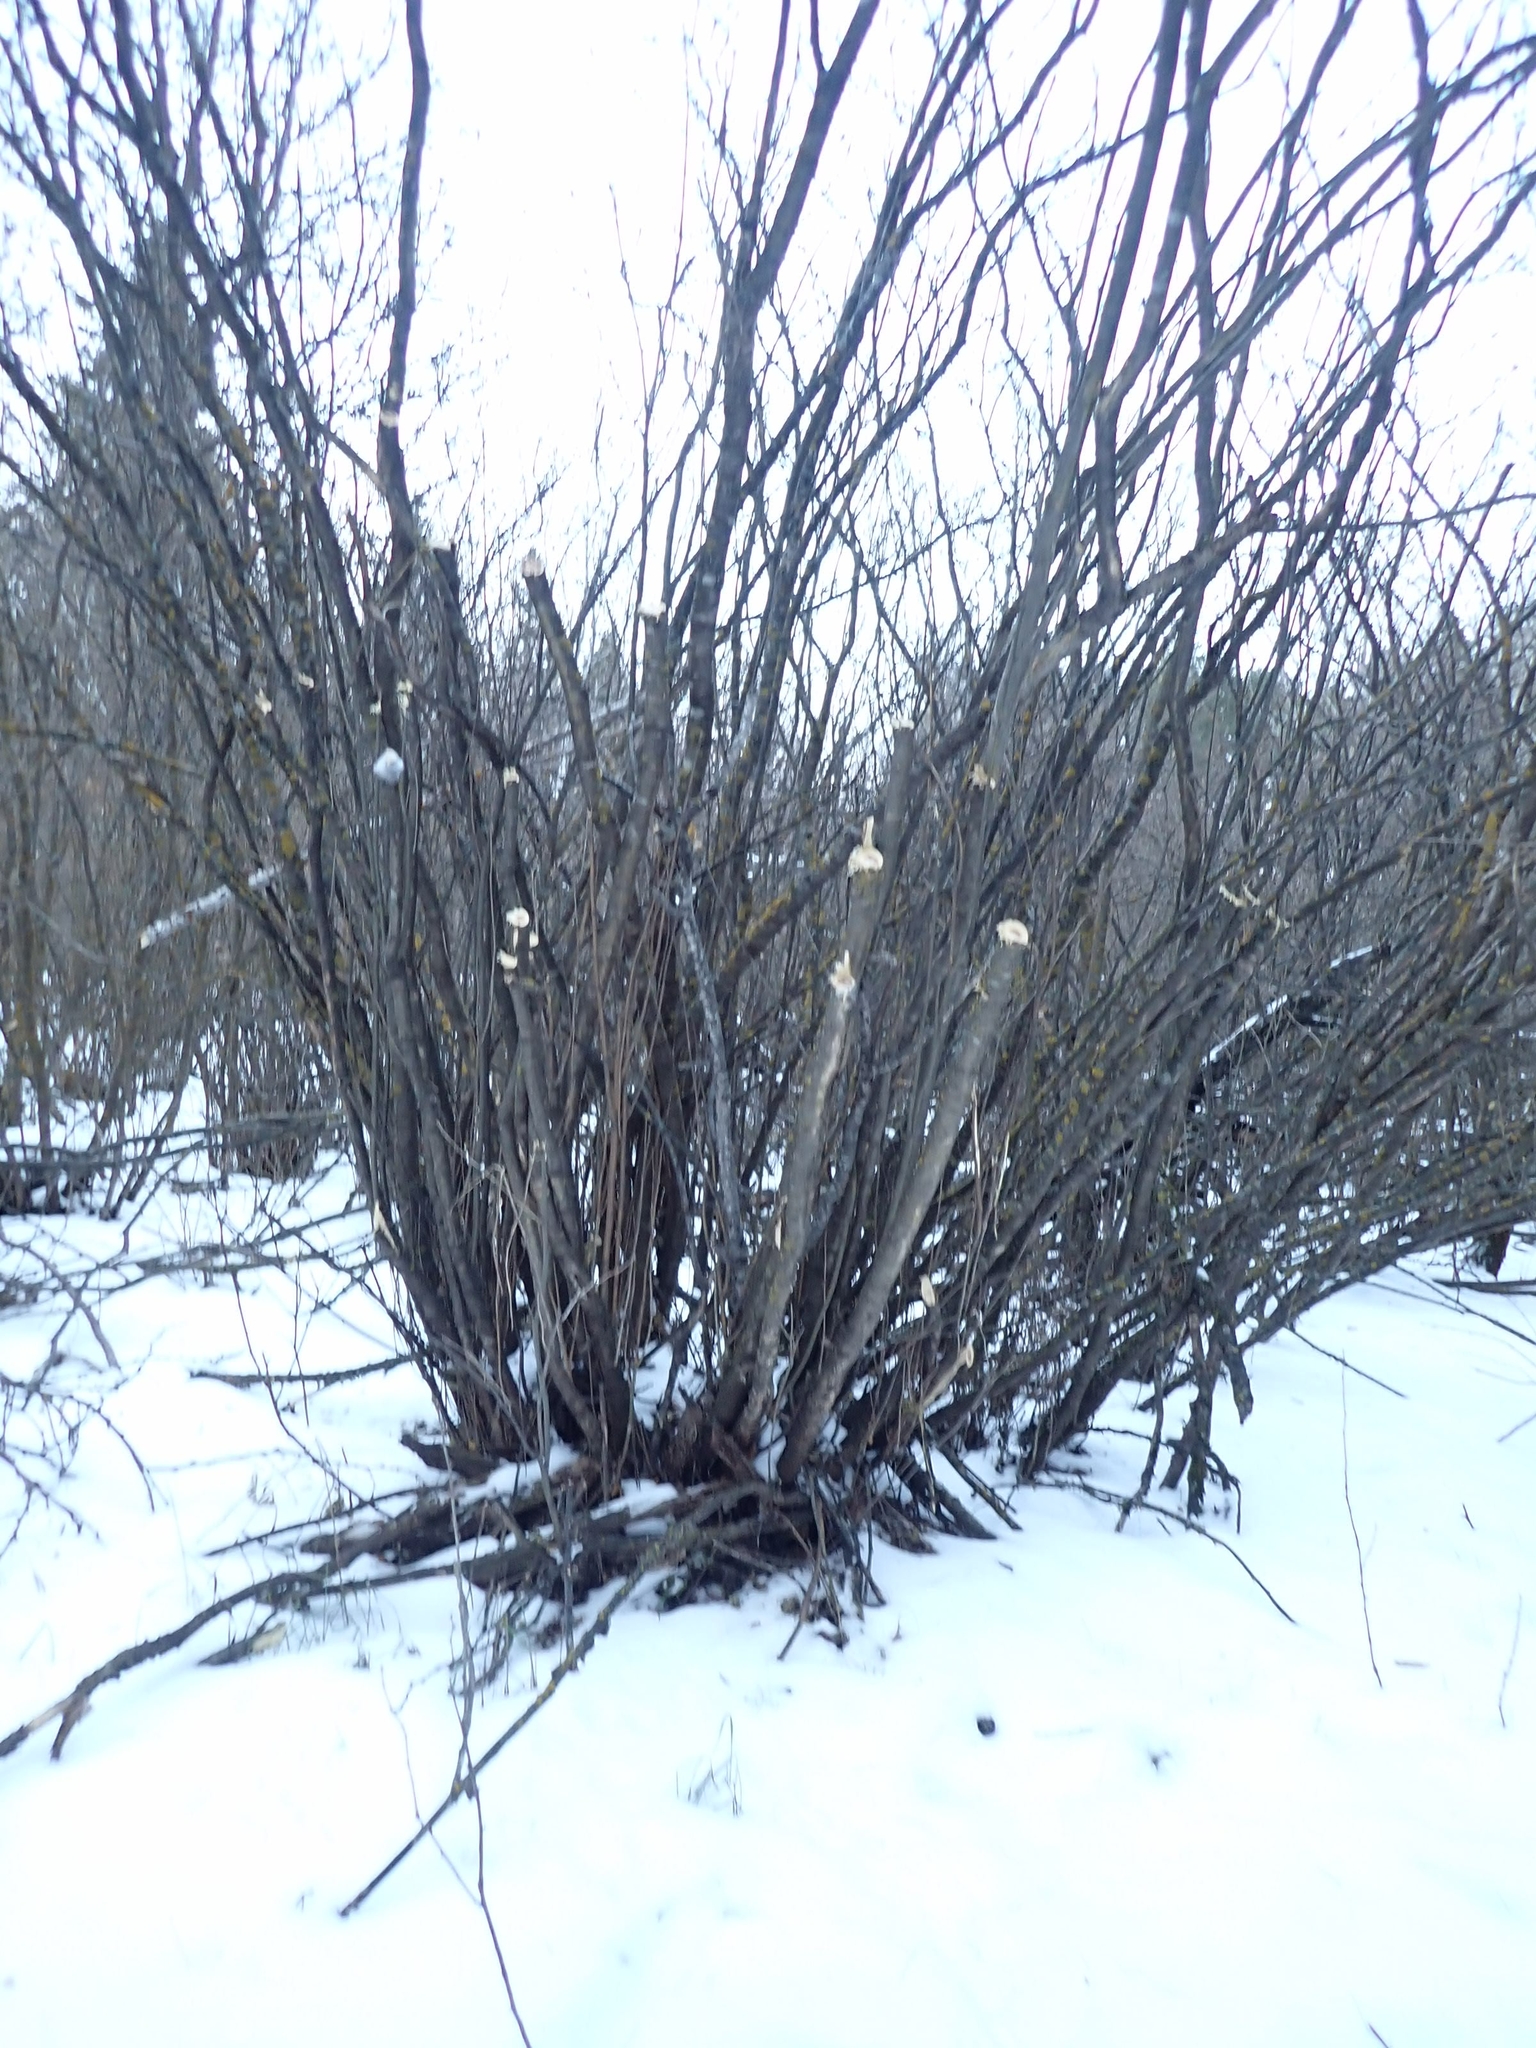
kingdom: Plantae
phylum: Tracheophyta
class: Magnoliopsida
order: Fabales
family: Fabaceae
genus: Caragana
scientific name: Caragana arborescens
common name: Siberian peashrub
